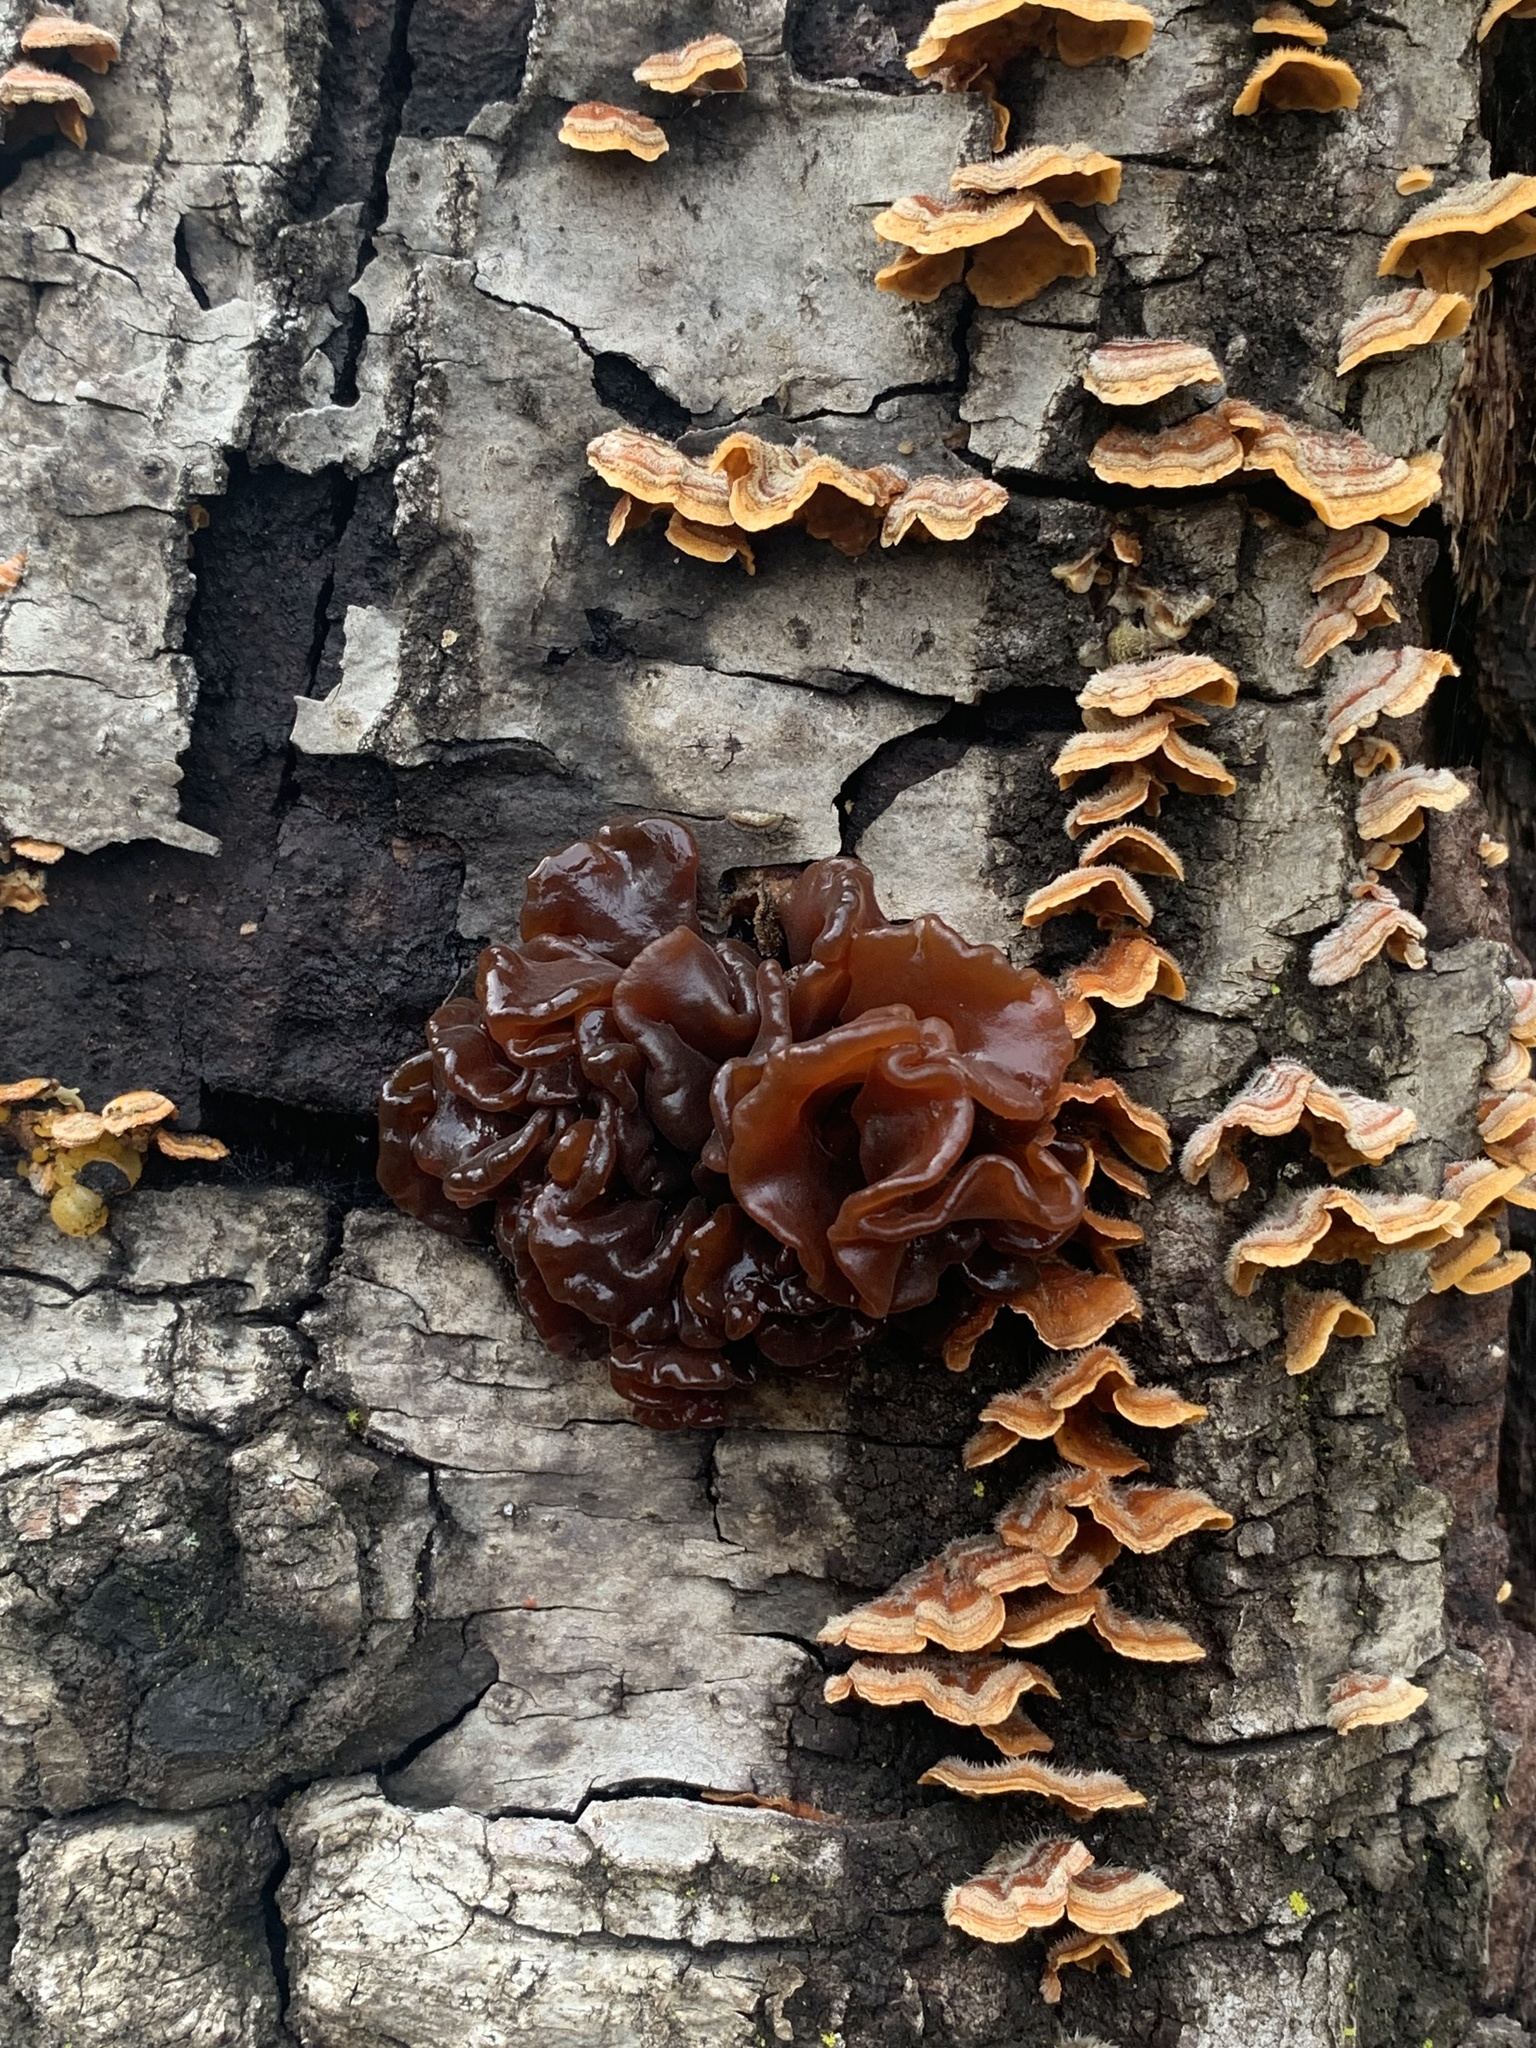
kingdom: Fungi
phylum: Basidiomycota
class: Tremellomycetes
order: Tremellales
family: Tremellaceae
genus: Phaeotremella
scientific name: Phaeotremella foliacea
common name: Leafy brain
